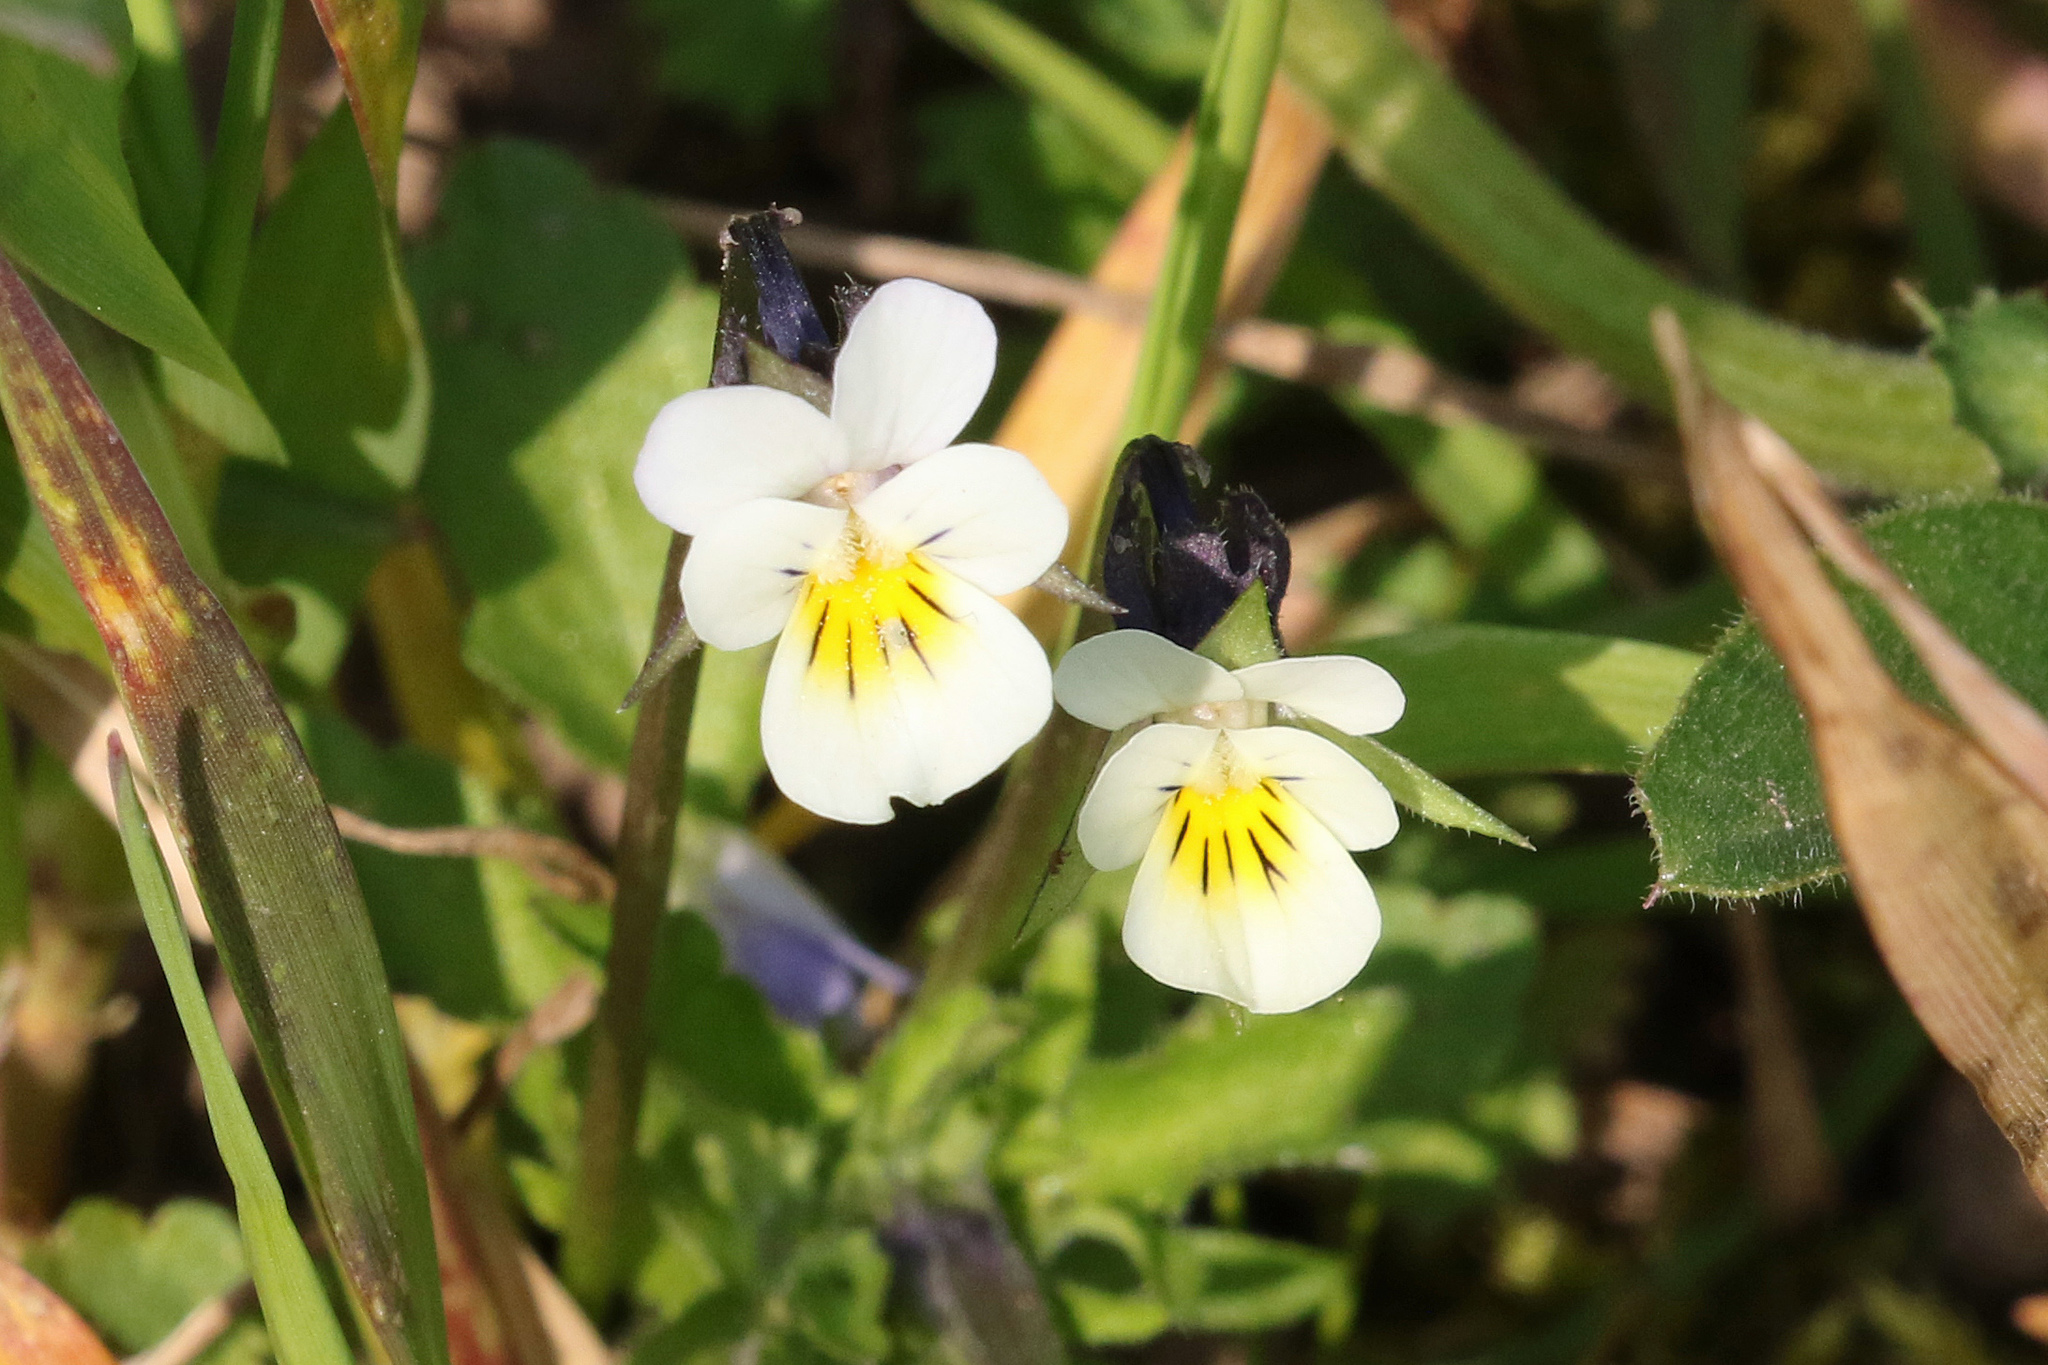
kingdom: Plantae
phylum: Tracheophyta
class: Magnoliopsida
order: Malpighiales
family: Violaceae
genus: Viola
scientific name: Viola arvensis
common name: Field pansy
